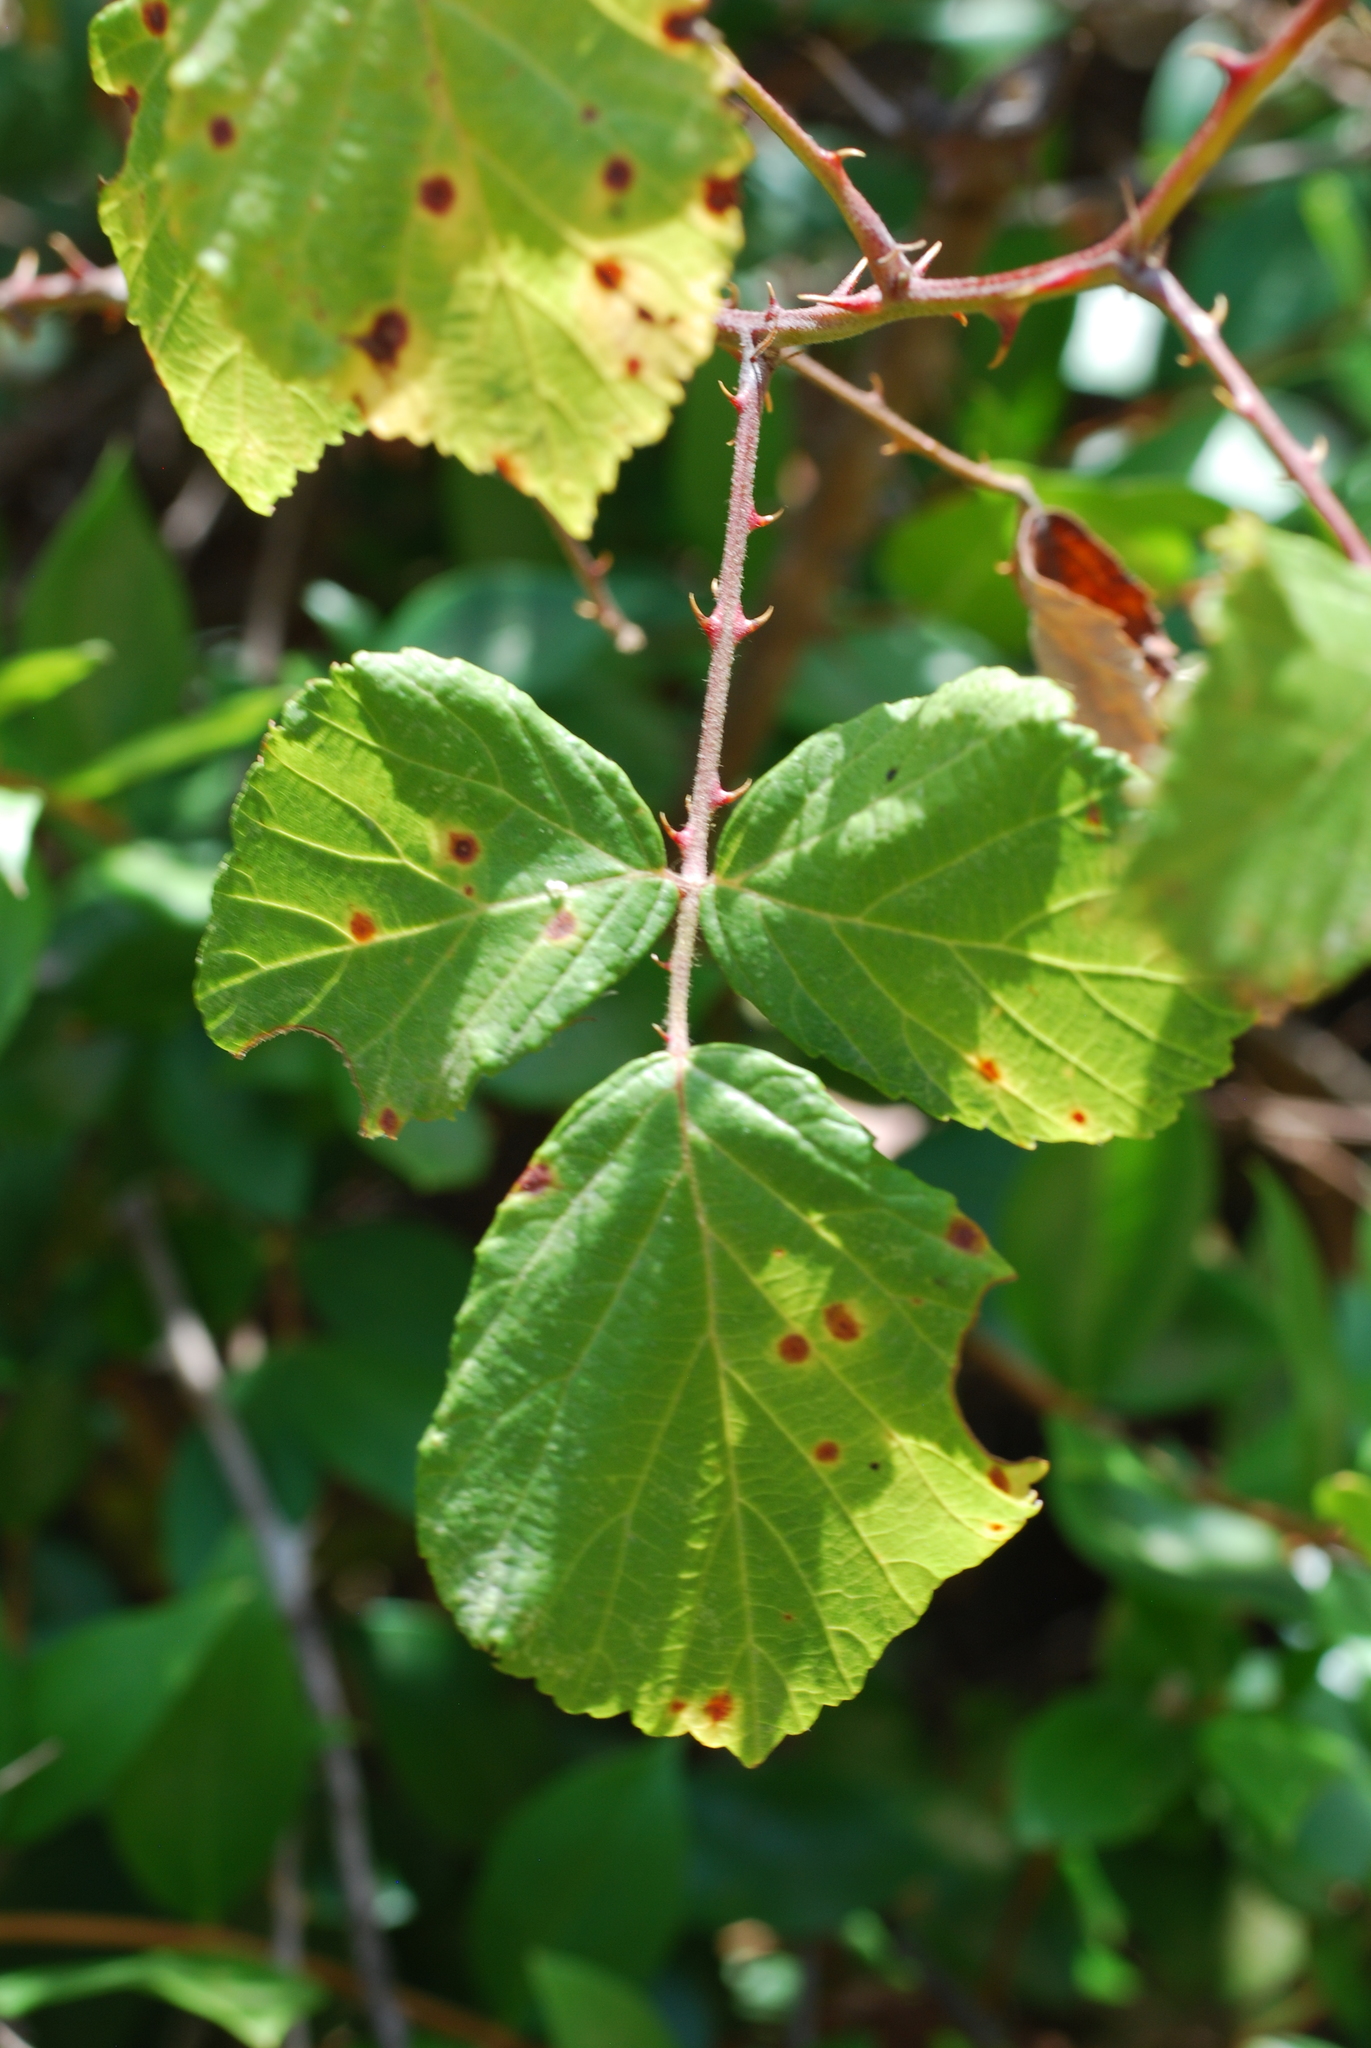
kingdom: Plantae
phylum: Tracheophyta
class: Magnoliopsida
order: Rosales
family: Rosaceae
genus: Rubus
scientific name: Rubus ulmifolius
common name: Elmleaf blackberry
